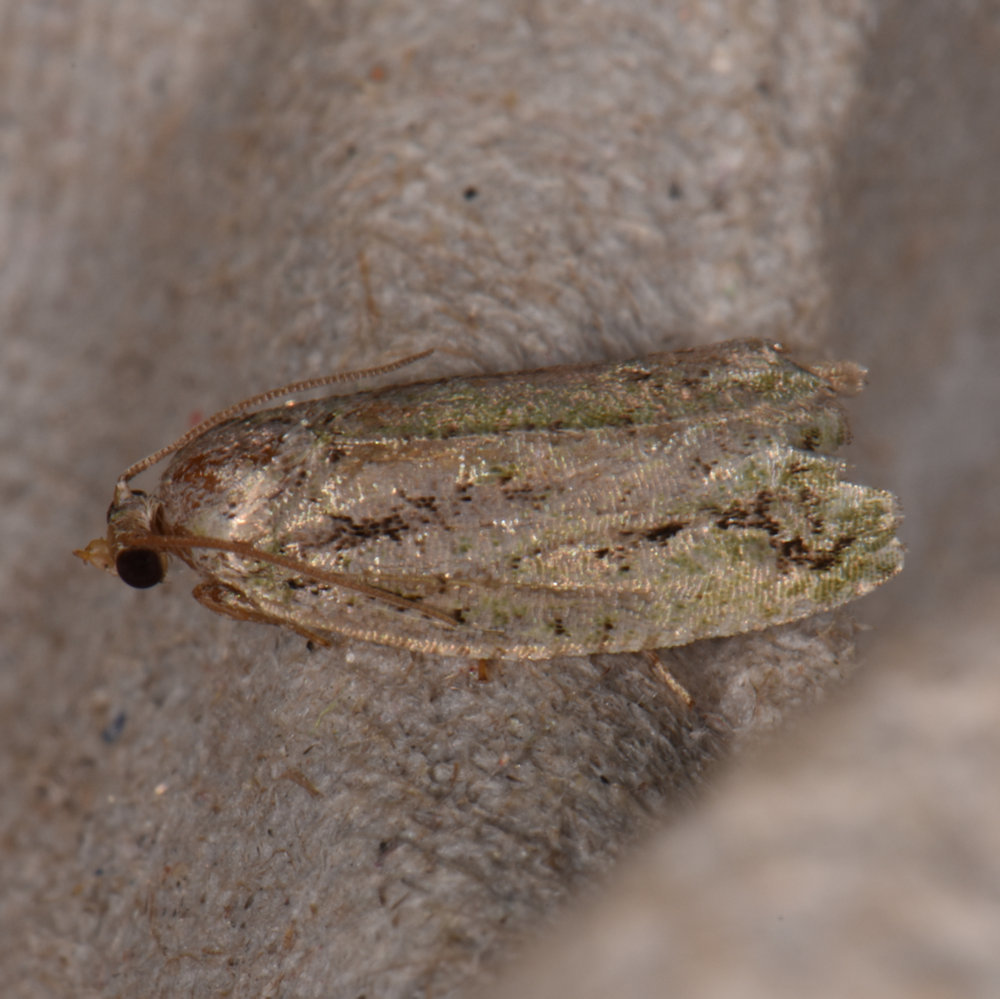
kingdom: Animalia
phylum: Arthropoda
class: Insecta
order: Lepidoptera
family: Tortricidae
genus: Proteoteras
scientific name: Proteoteras aesculana
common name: Maple twig borer moth
